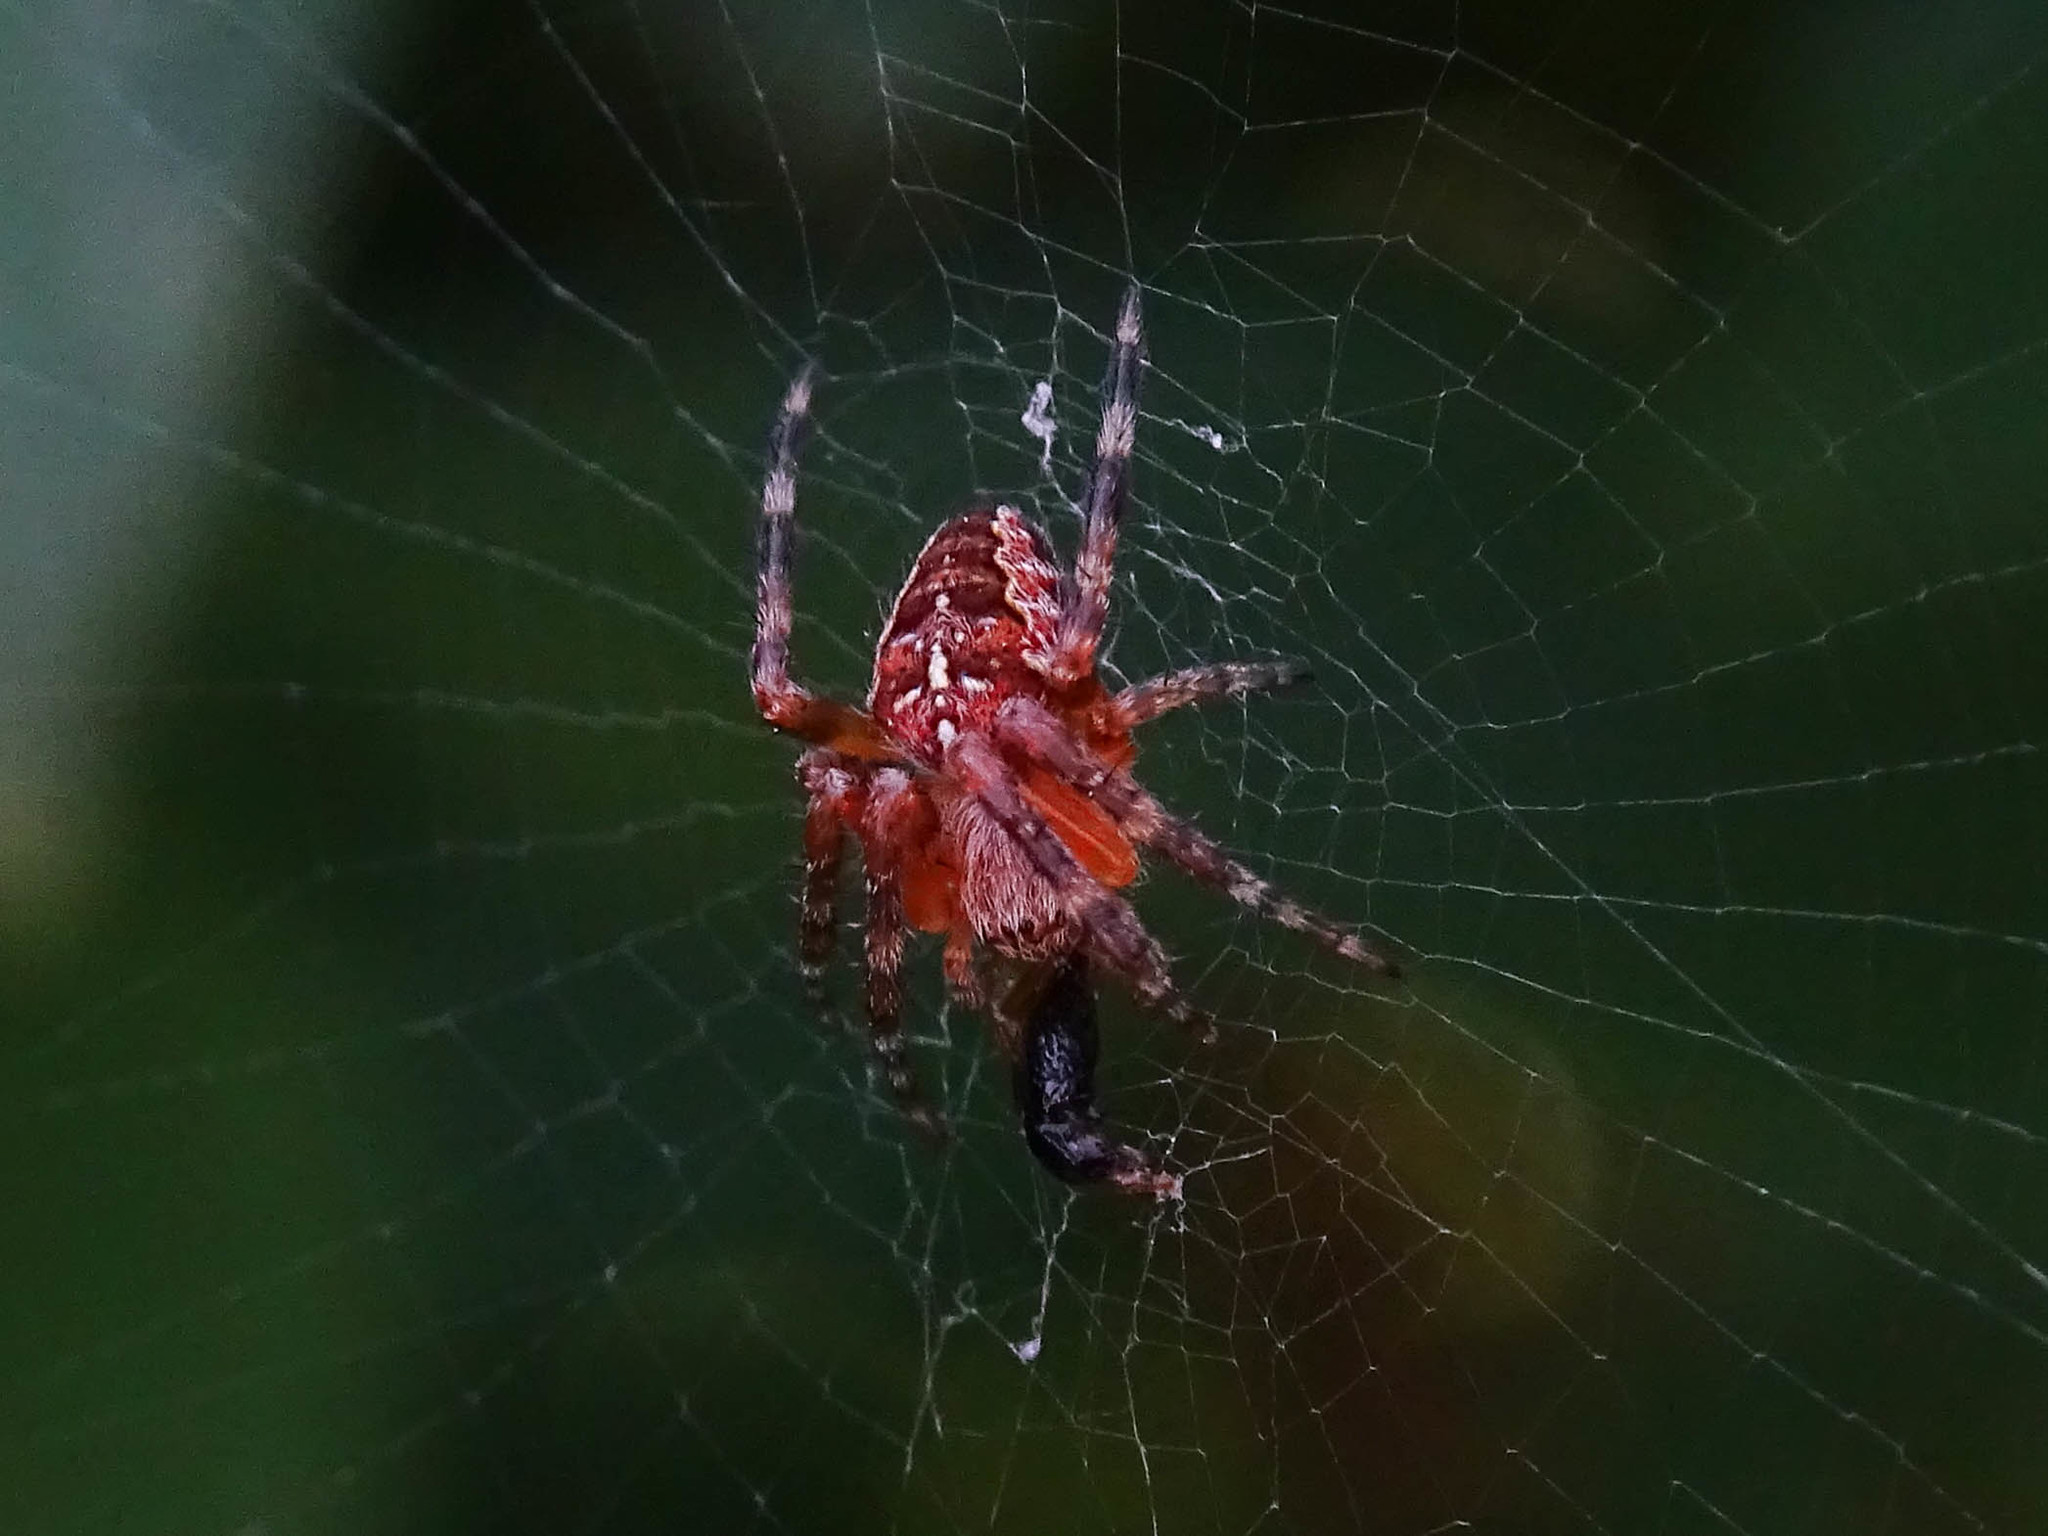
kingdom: Animalia
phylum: Arthropoda
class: Arachnida
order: Araneae
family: Araneidae
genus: Araneus
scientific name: Araneus diadematus
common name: Cross orbweaver
